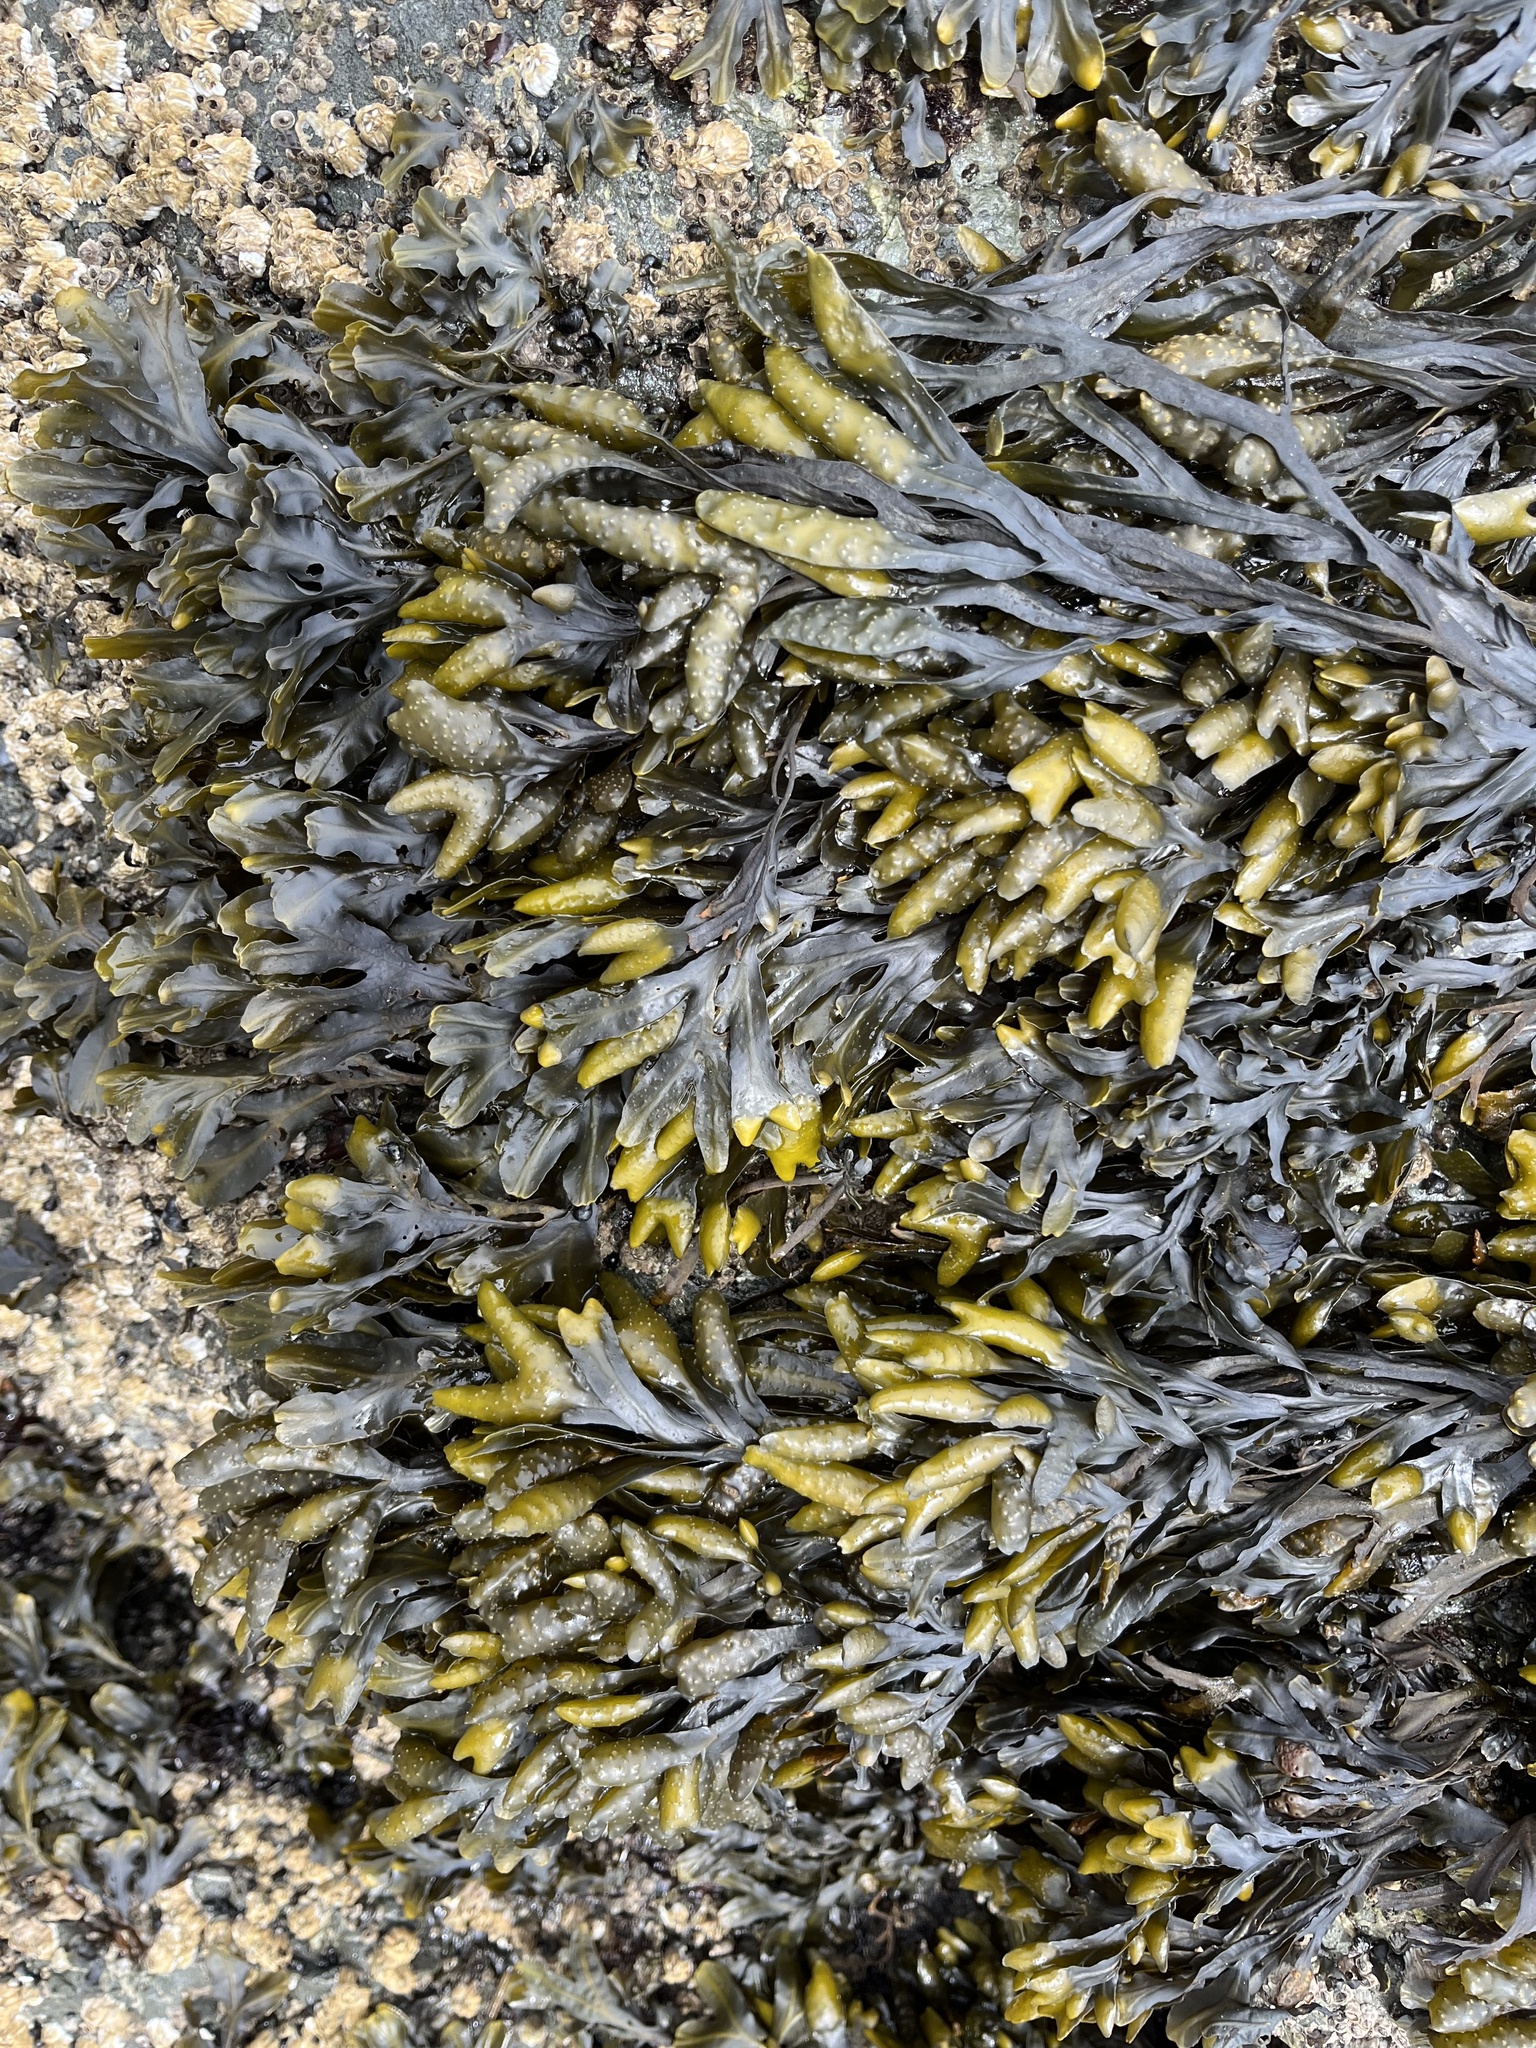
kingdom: Chromista
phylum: Ochrophyta
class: Phaeophyceae
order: Fucales
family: Fucaceae
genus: Fucus
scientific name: Fucus distichus
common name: Rockweed
